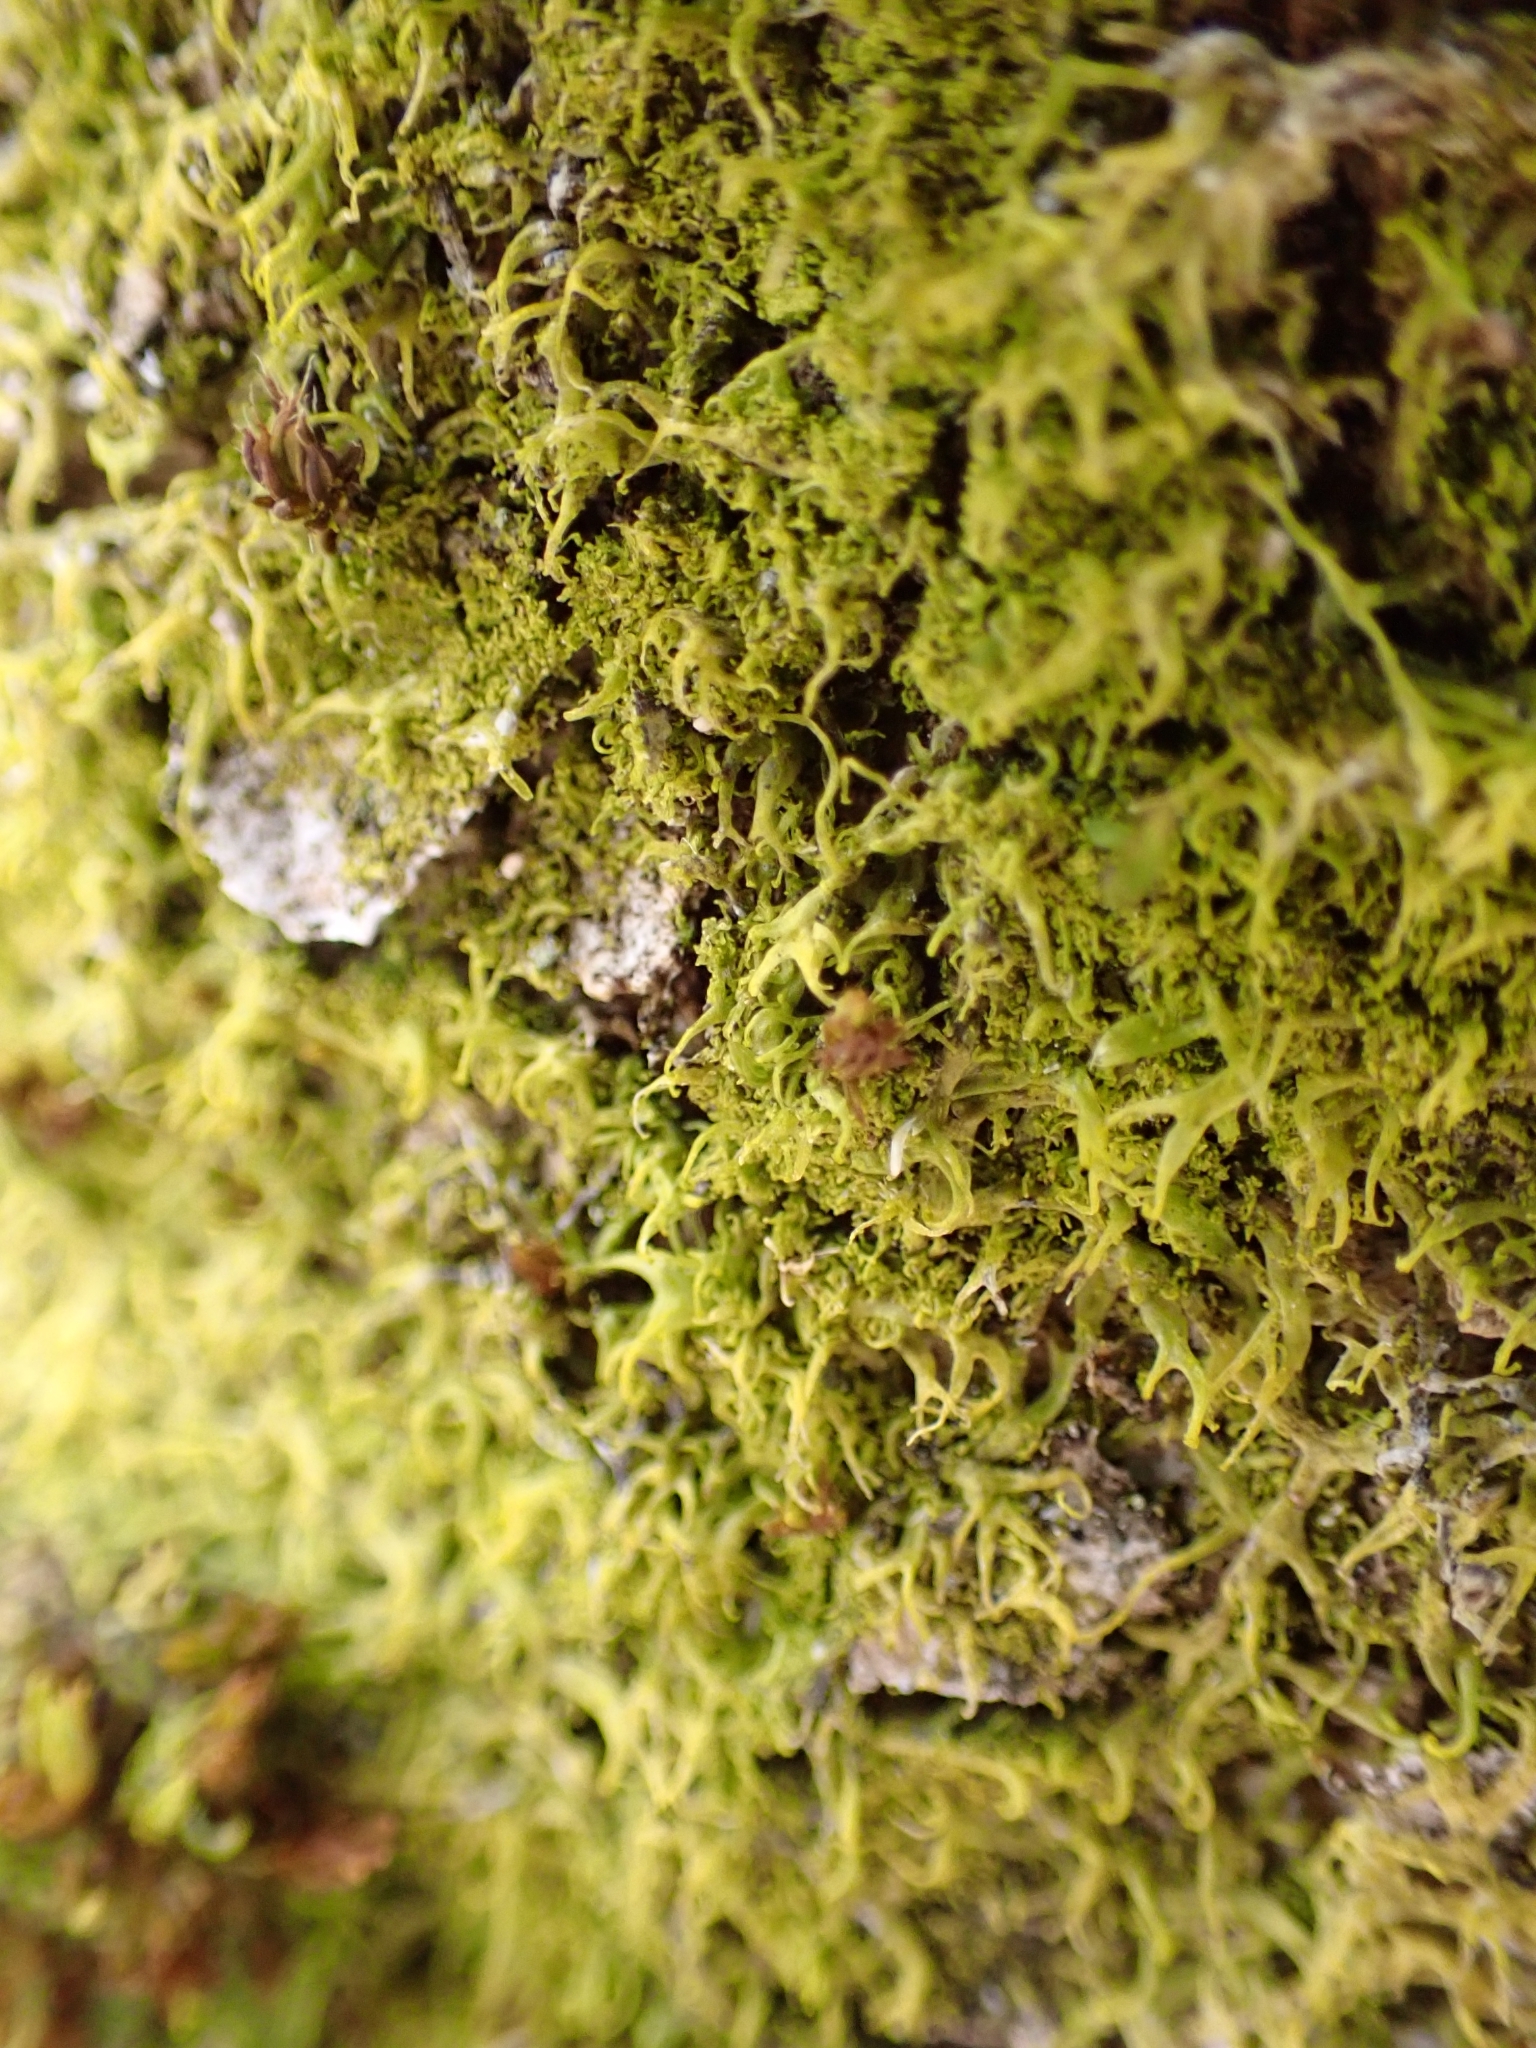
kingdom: Plantae
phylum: Marchantiophyta
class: Jungermanniopsida
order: Metzgeriales
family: Metzgeriaceae
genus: Metzgeria
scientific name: Metzgeria violacea
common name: Blueish veilwort
